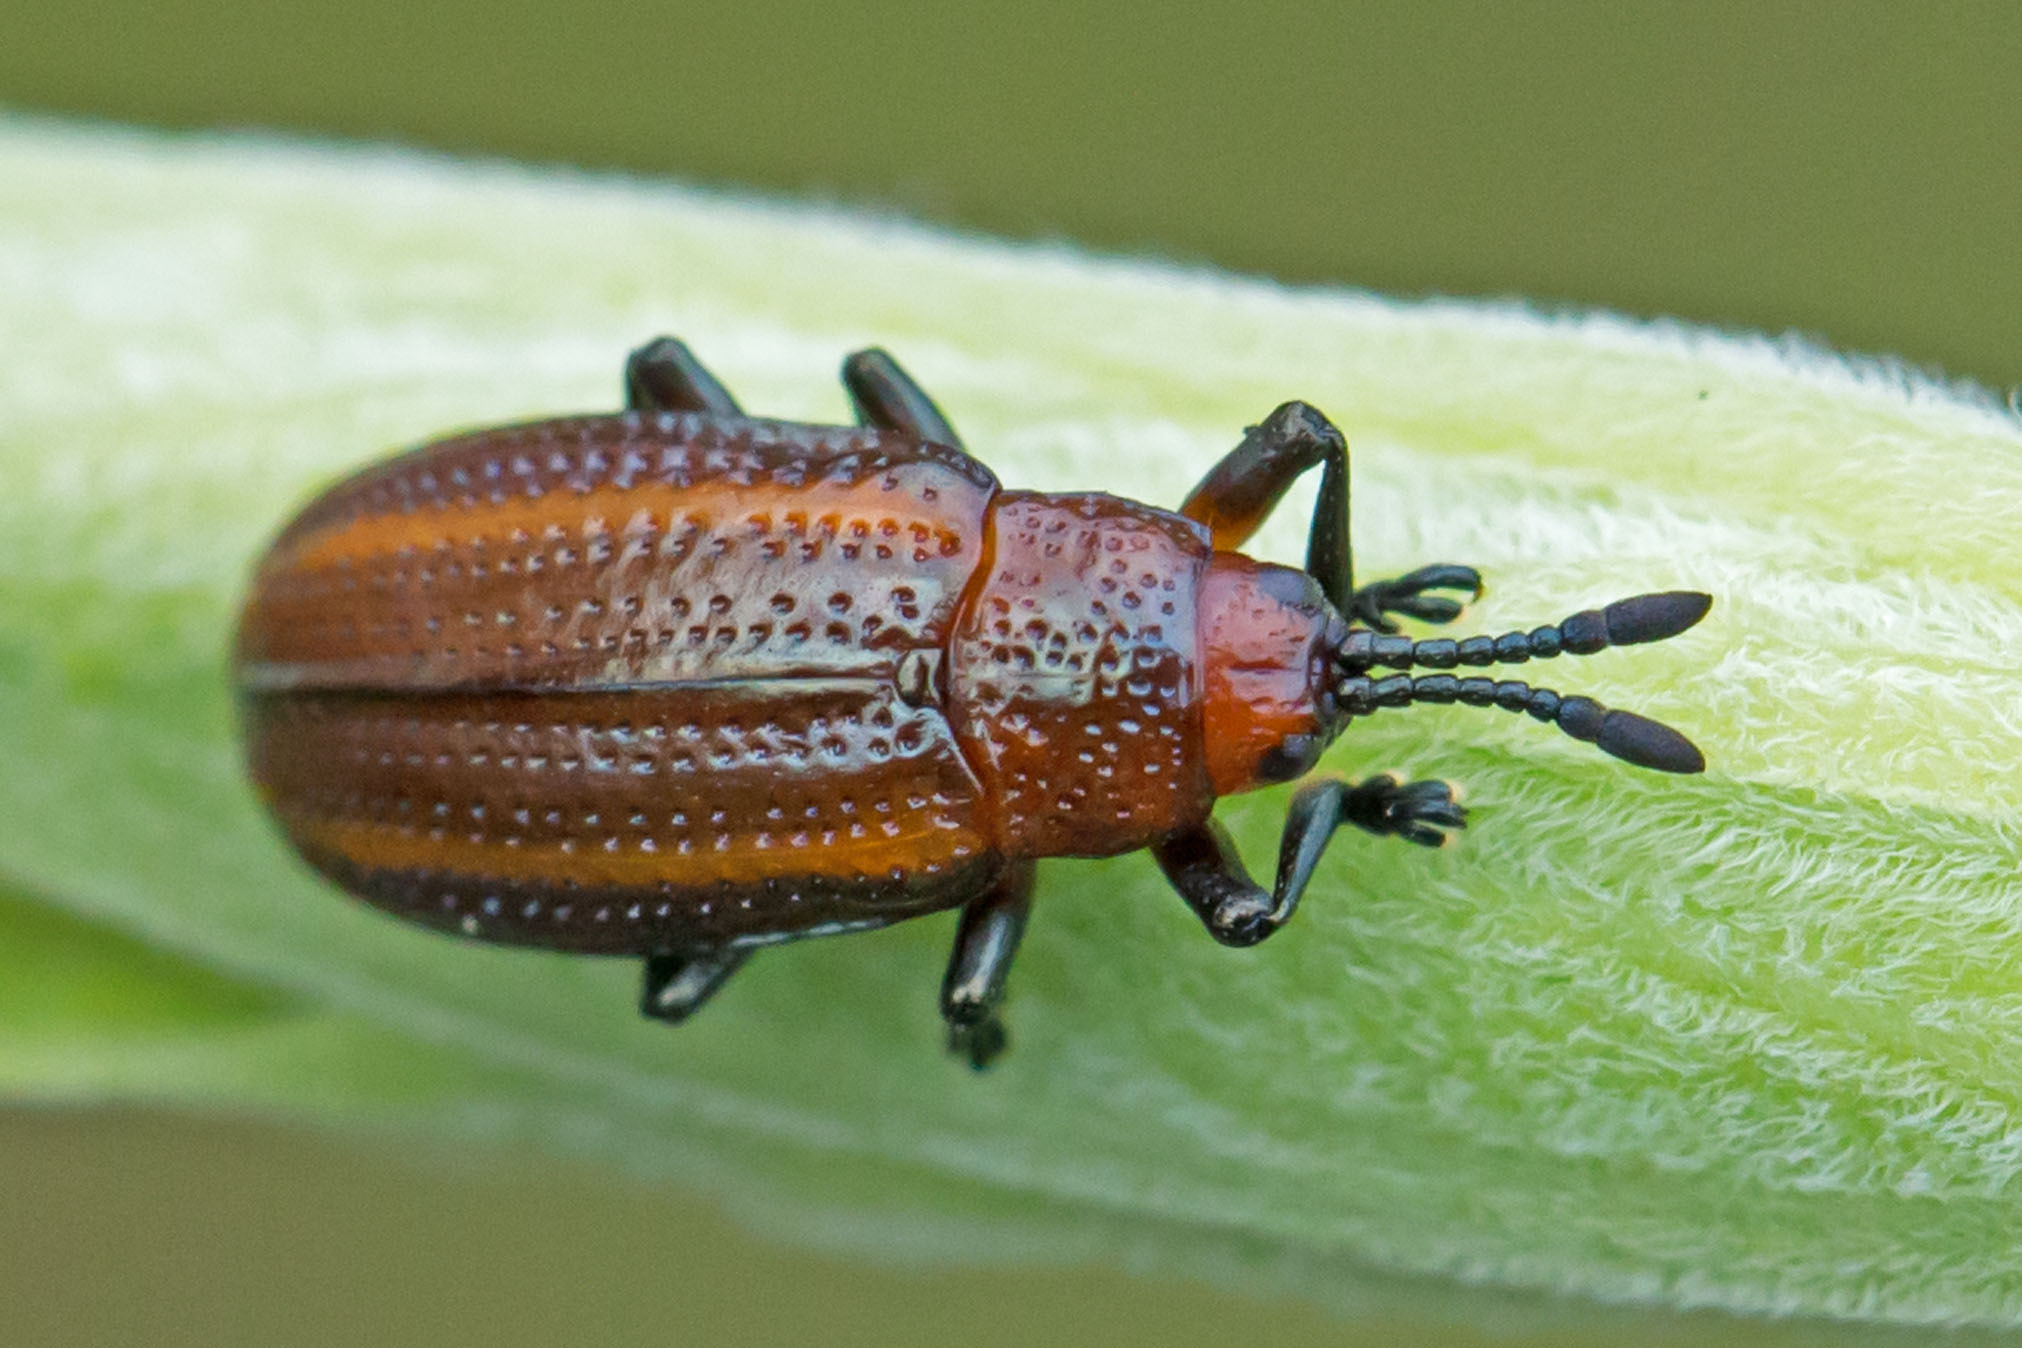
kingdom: Animalia
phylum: Arthropoda
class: Insecta
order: Coleoptera
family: Chrysomelidae
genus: Microrhopala
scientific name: Microrhopala vittata
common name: Goldenrod leaf miner beetle
